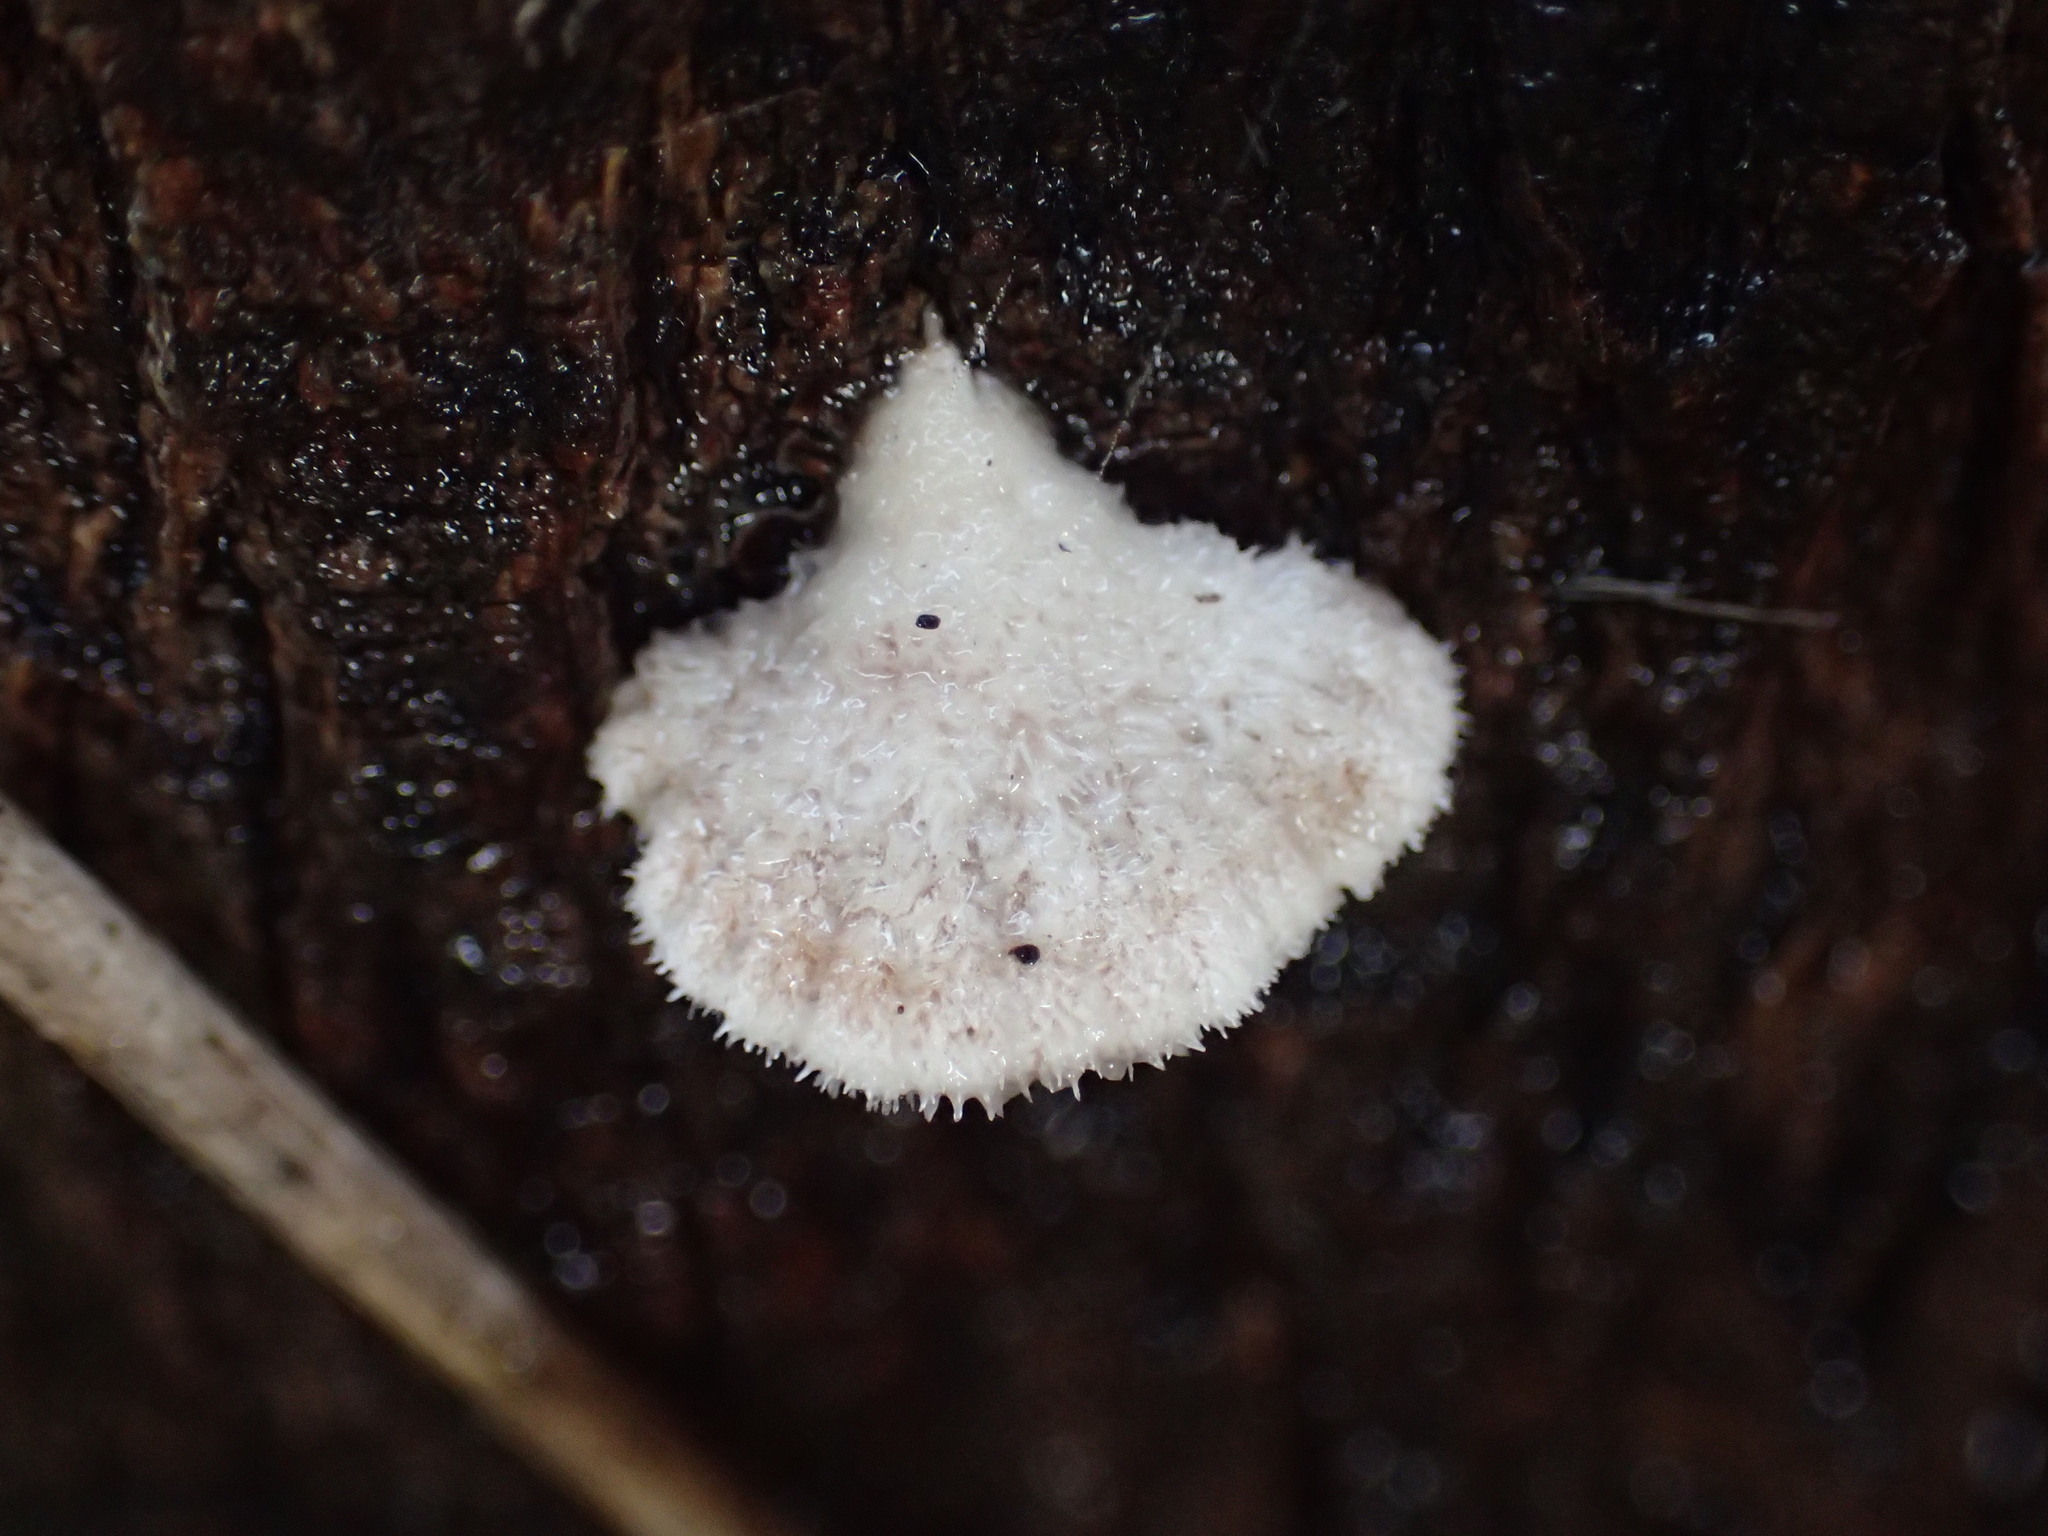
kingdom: Fungi
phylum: Basidiomycota
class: Agaricomycetes
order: Agaricales
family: Schizophyllaceae
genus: Schizophyllum
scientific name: Schizophyllum commune
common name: Common porecrust
